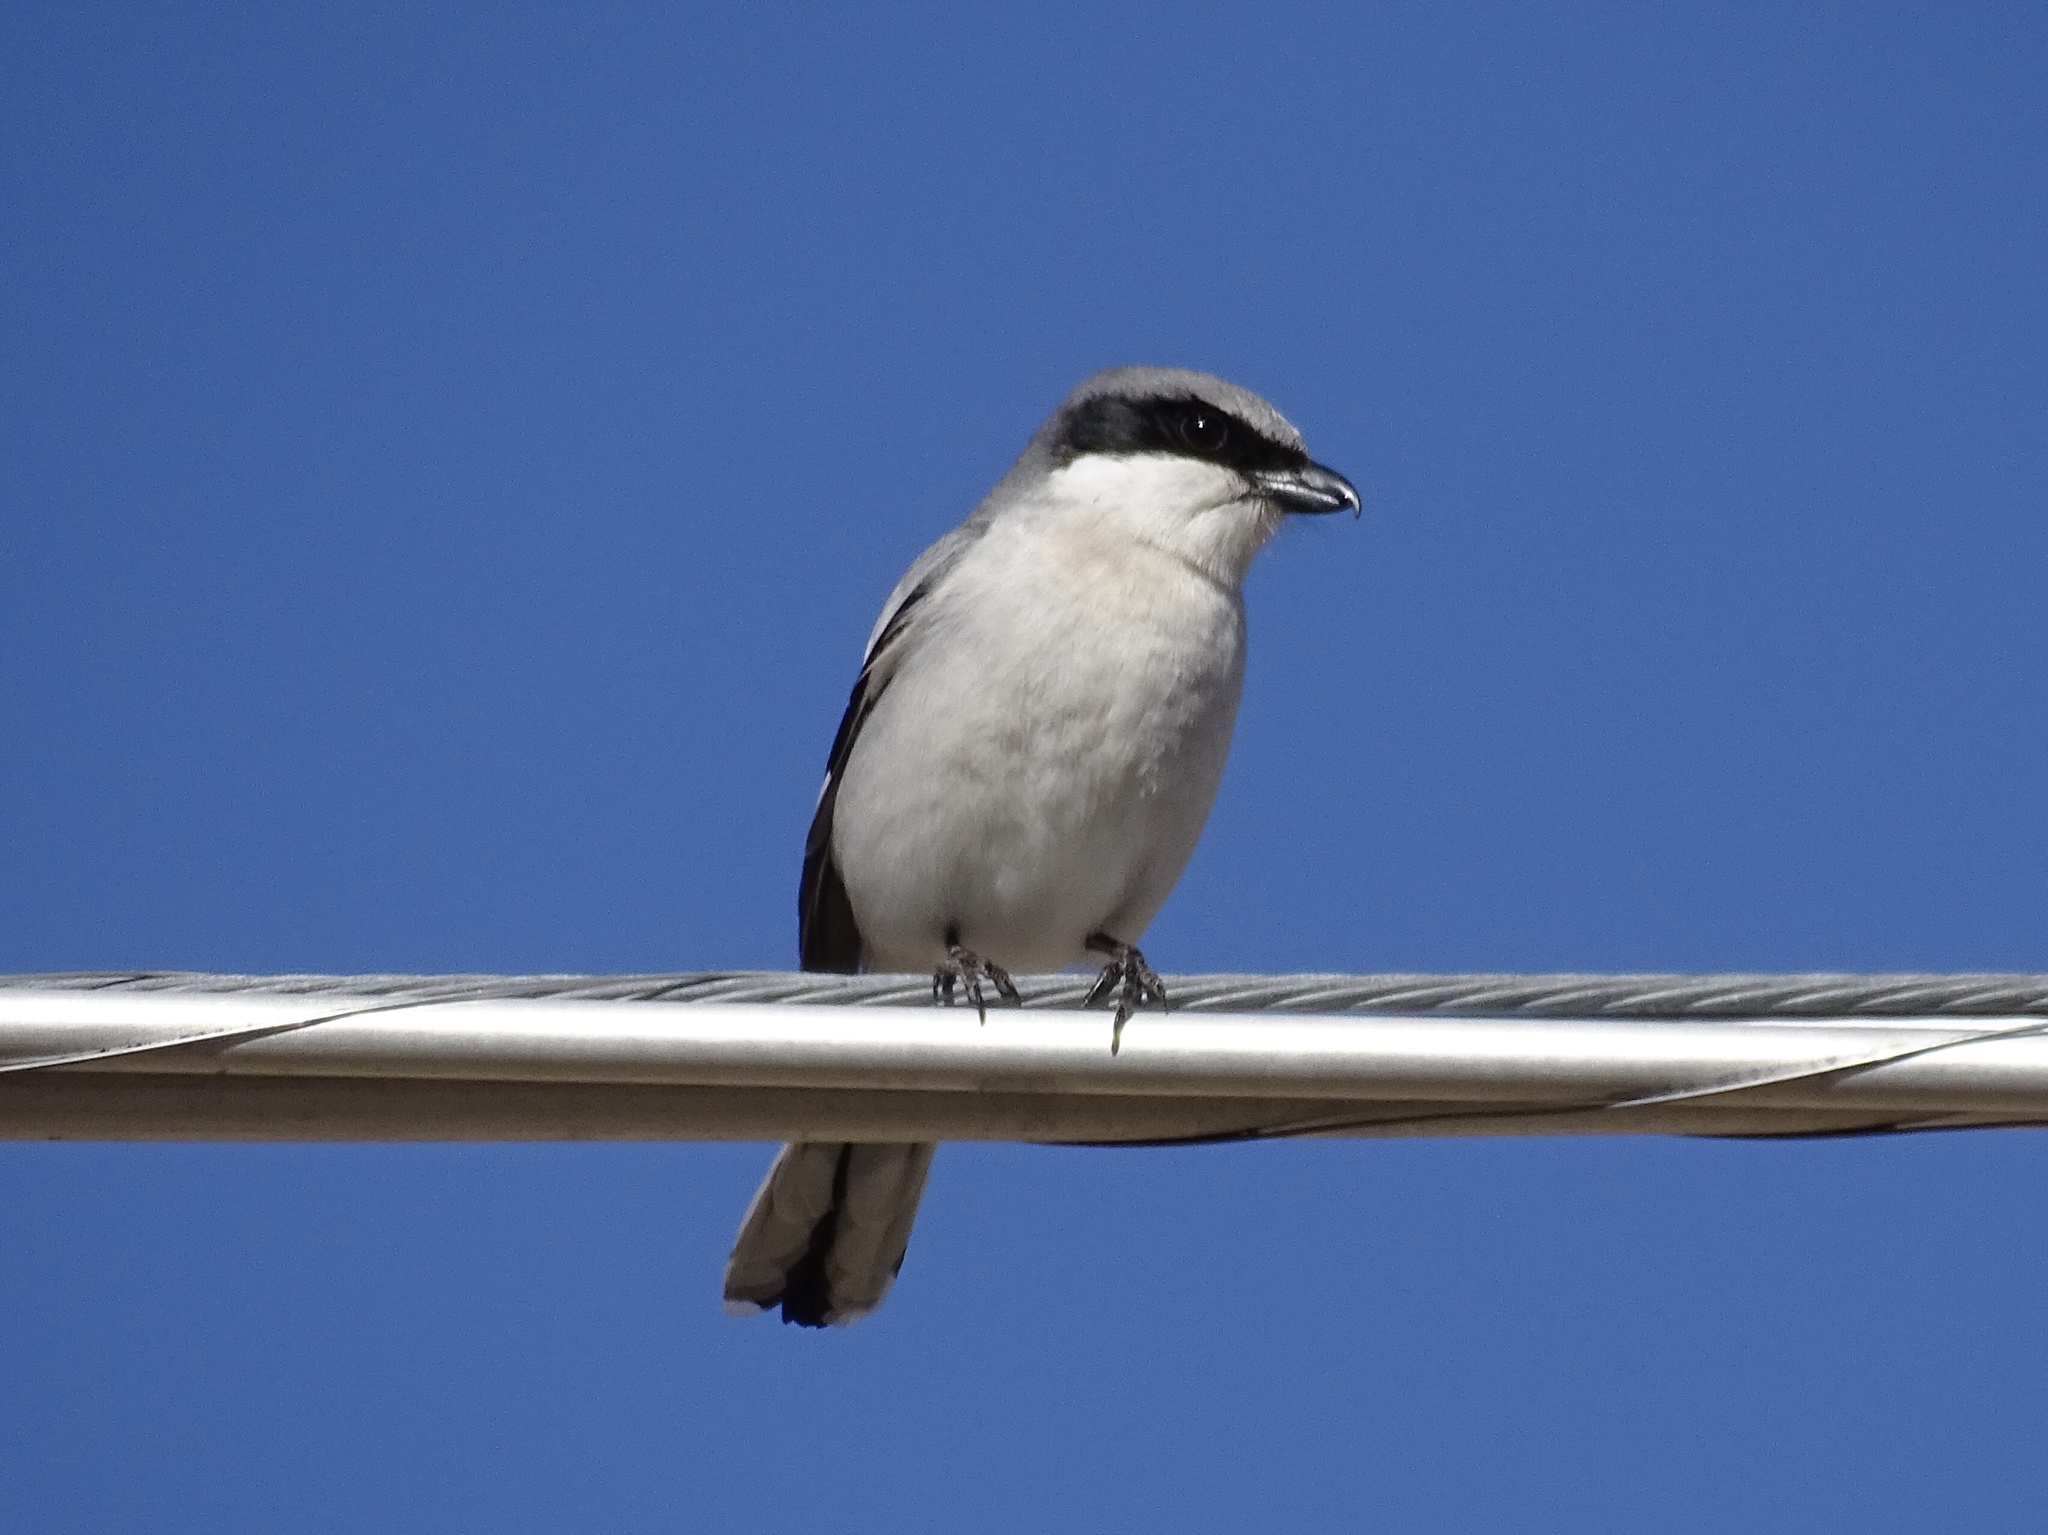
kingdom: Animalia
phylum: Chordata
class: Aves
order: Passeriformes
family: Laniidae
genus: Lanius
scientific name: Lanius ludovicianus
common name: Loggerhead shrike
